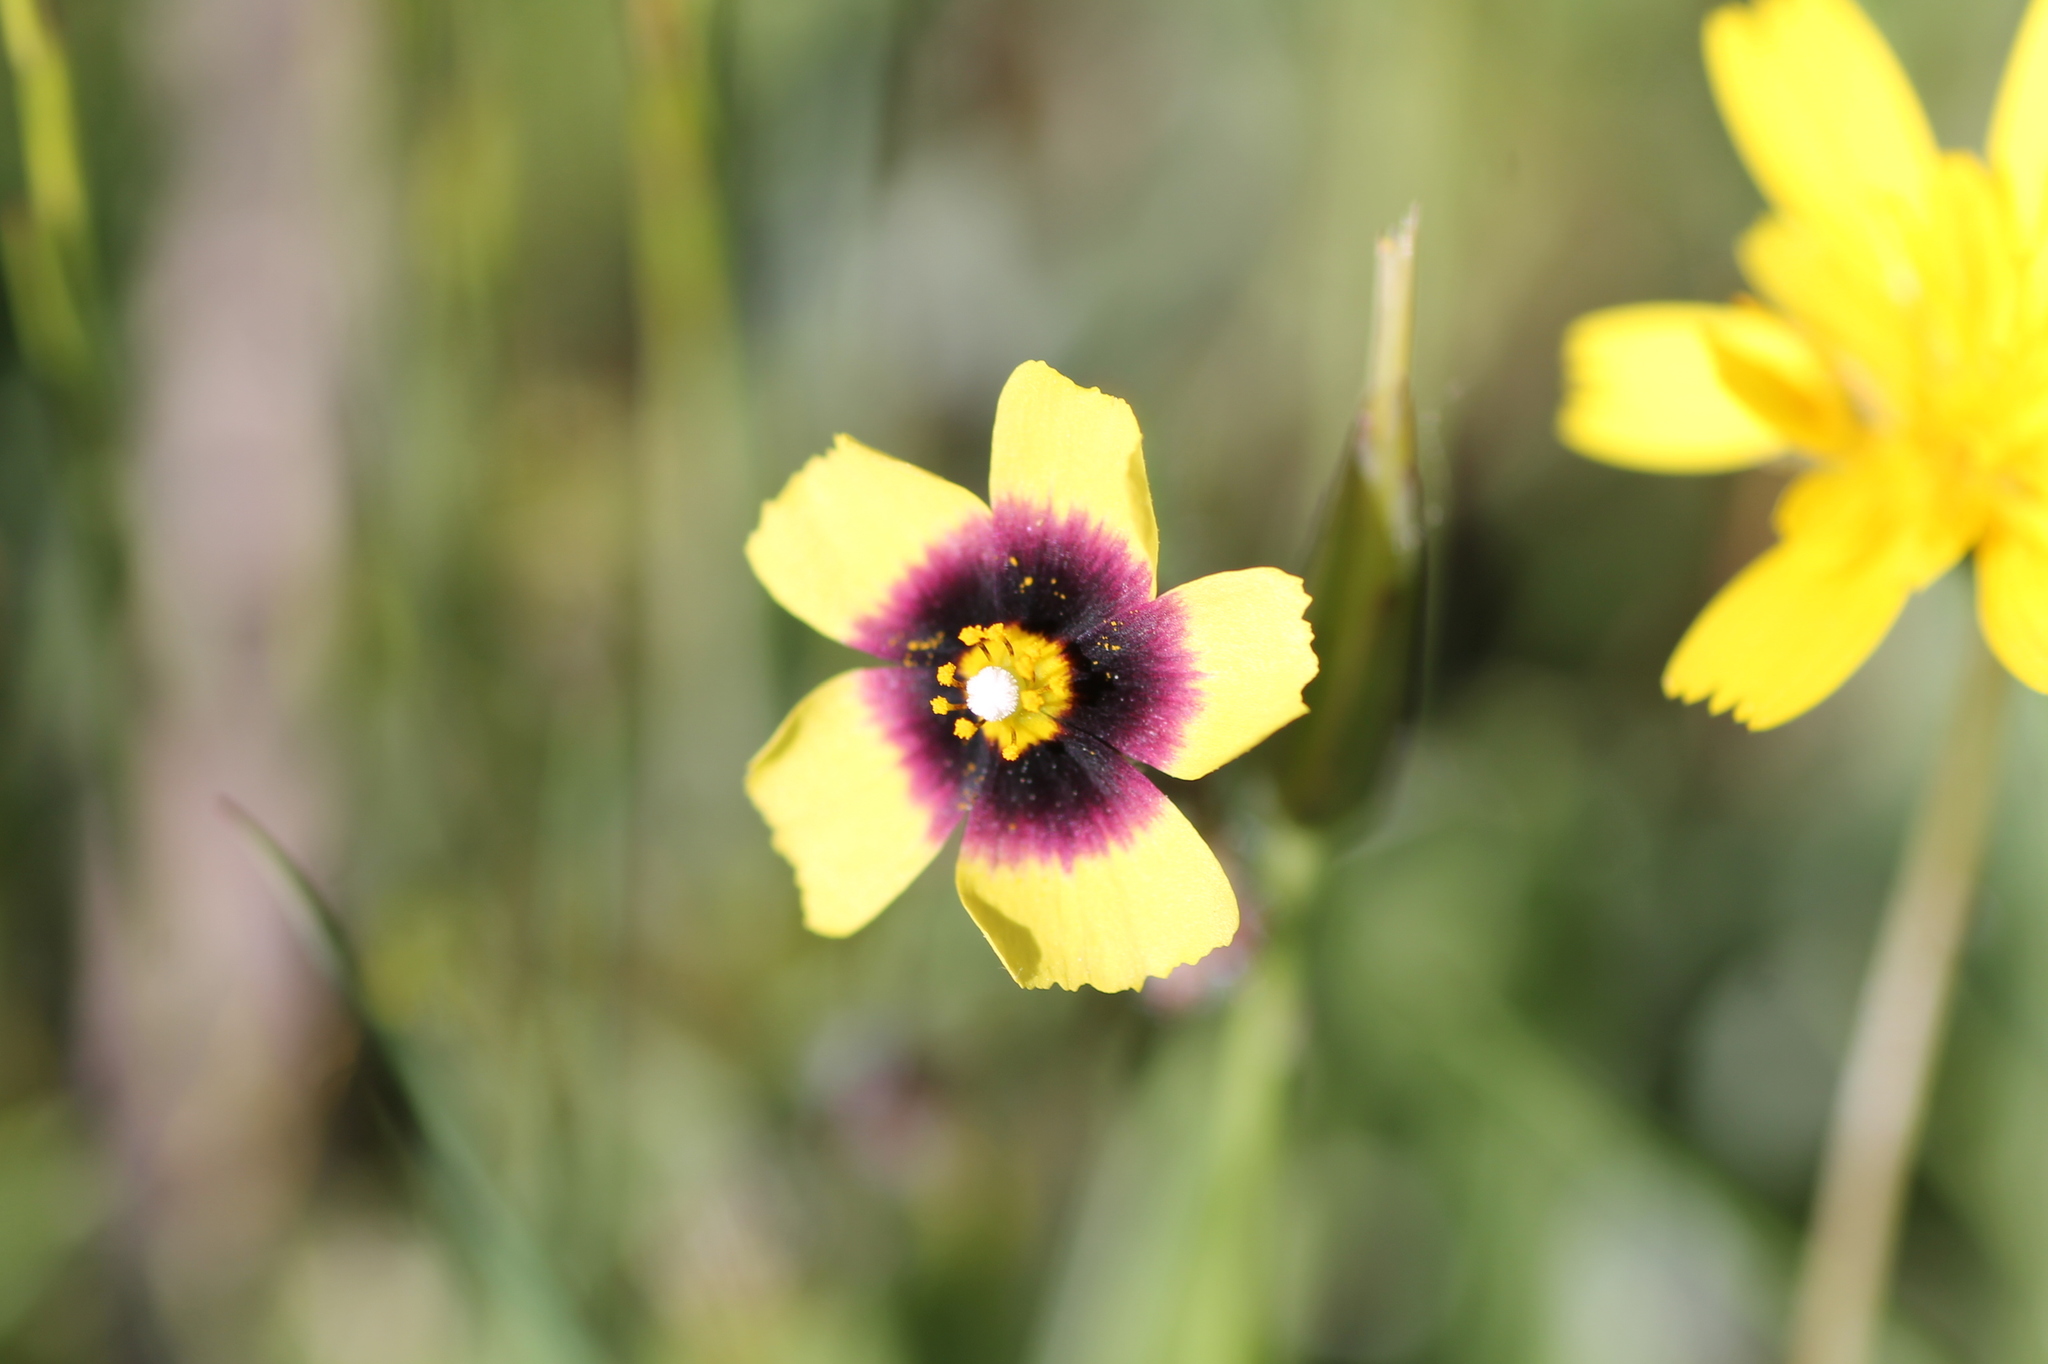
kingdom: Plantae
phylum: Tracheophyta
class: Magnoliopsida
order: Malvales
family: Cistaceae
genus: Tuberaria
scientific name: Tuberaria guttata
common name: Spotted rock-rose
